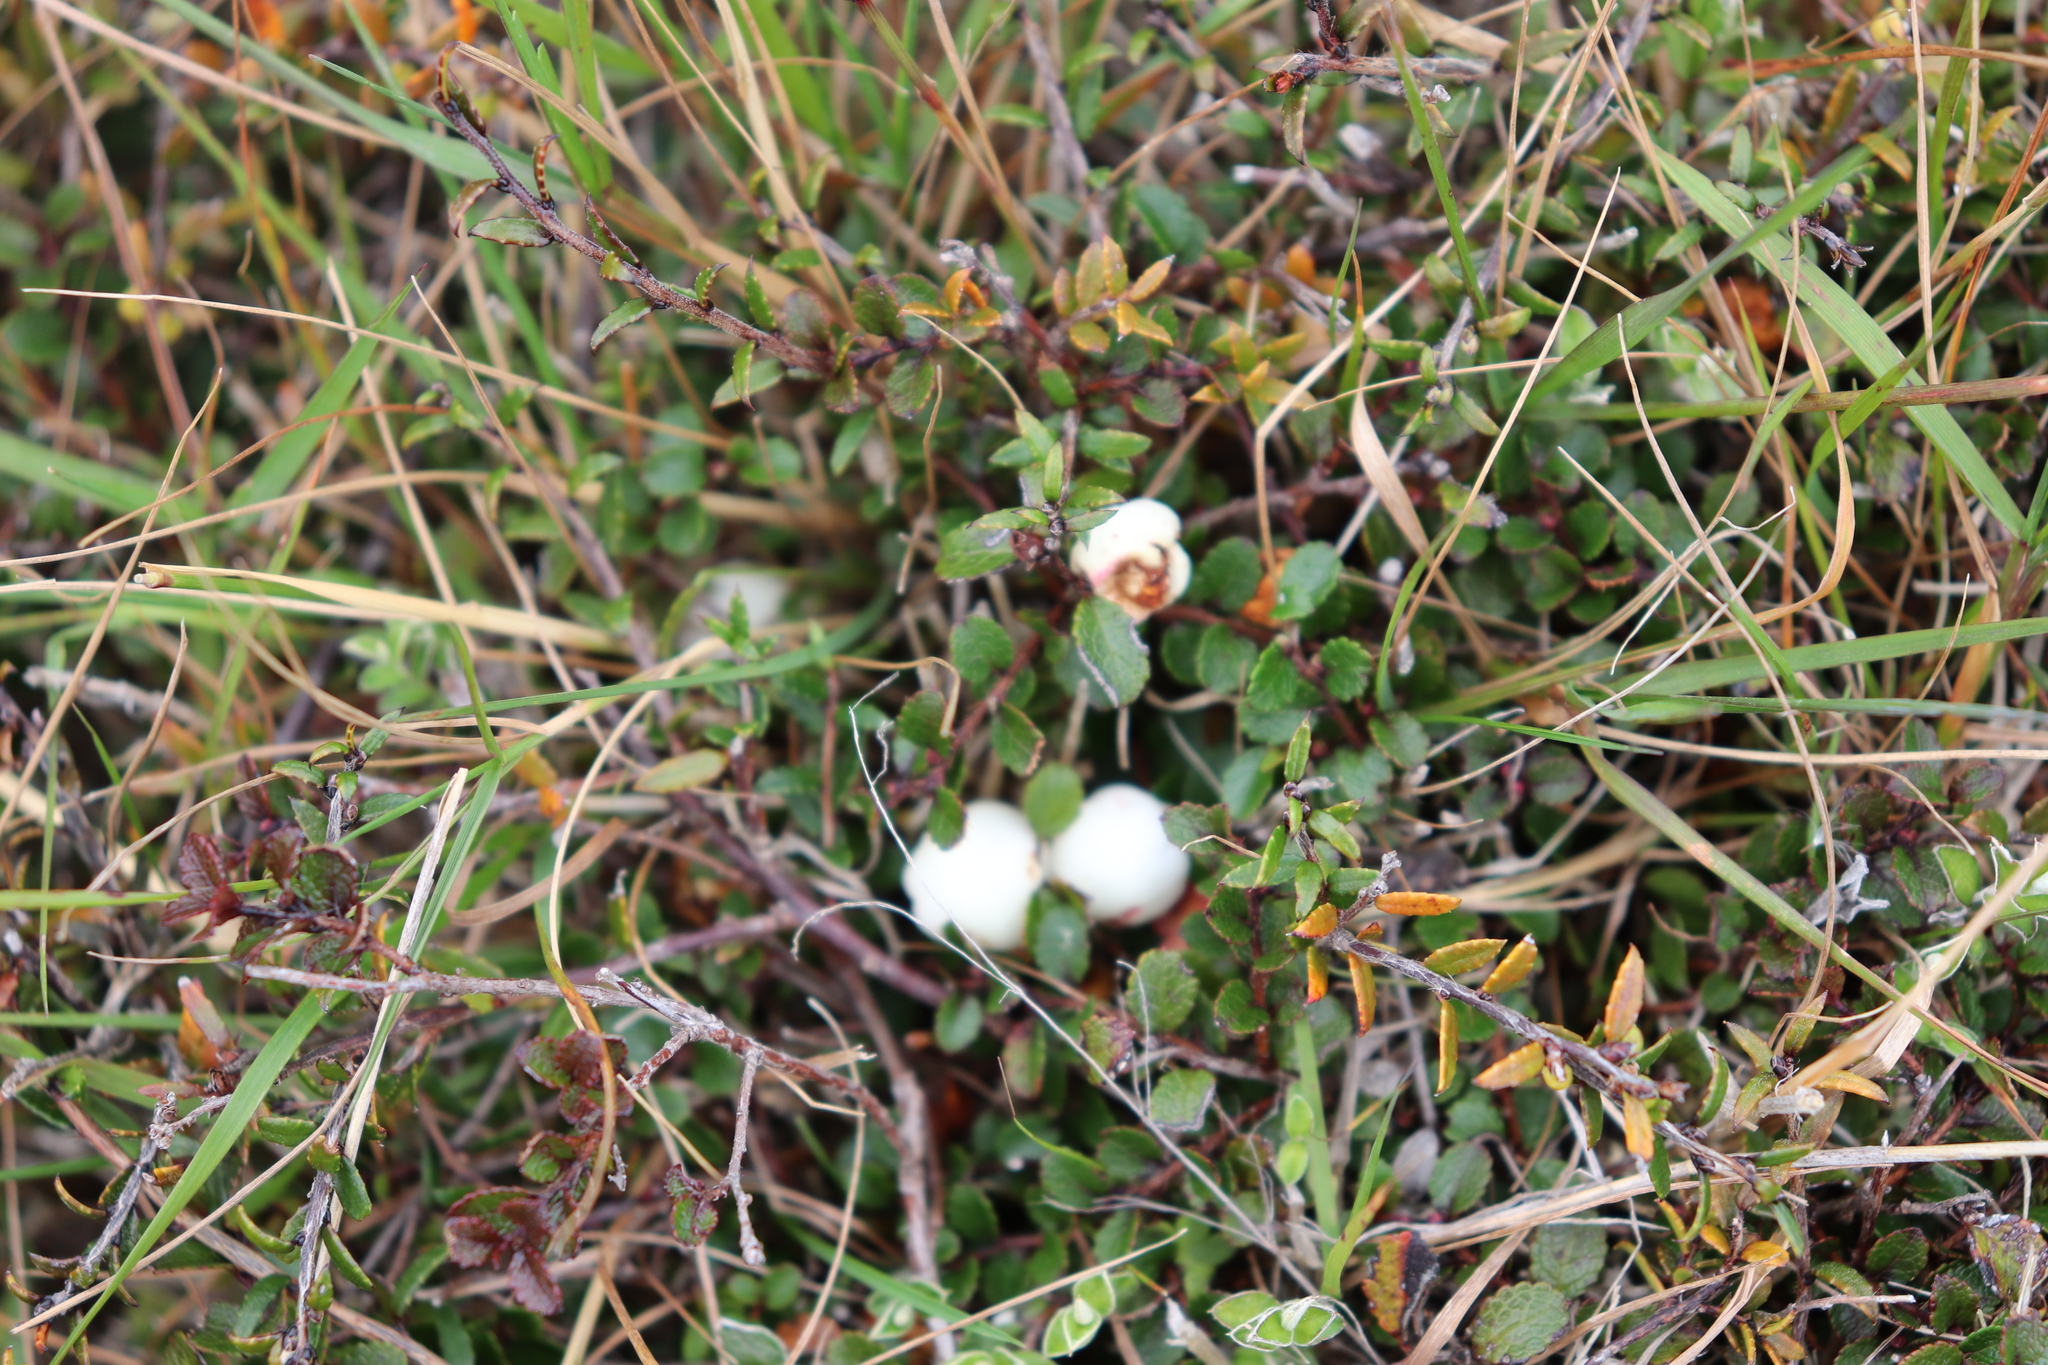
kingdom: Plantae
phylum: Tracheophyta
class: Magnoliopsida
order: Ericales
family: Ericaceae
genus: Gaultheria
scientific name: Gaultheria depressa
